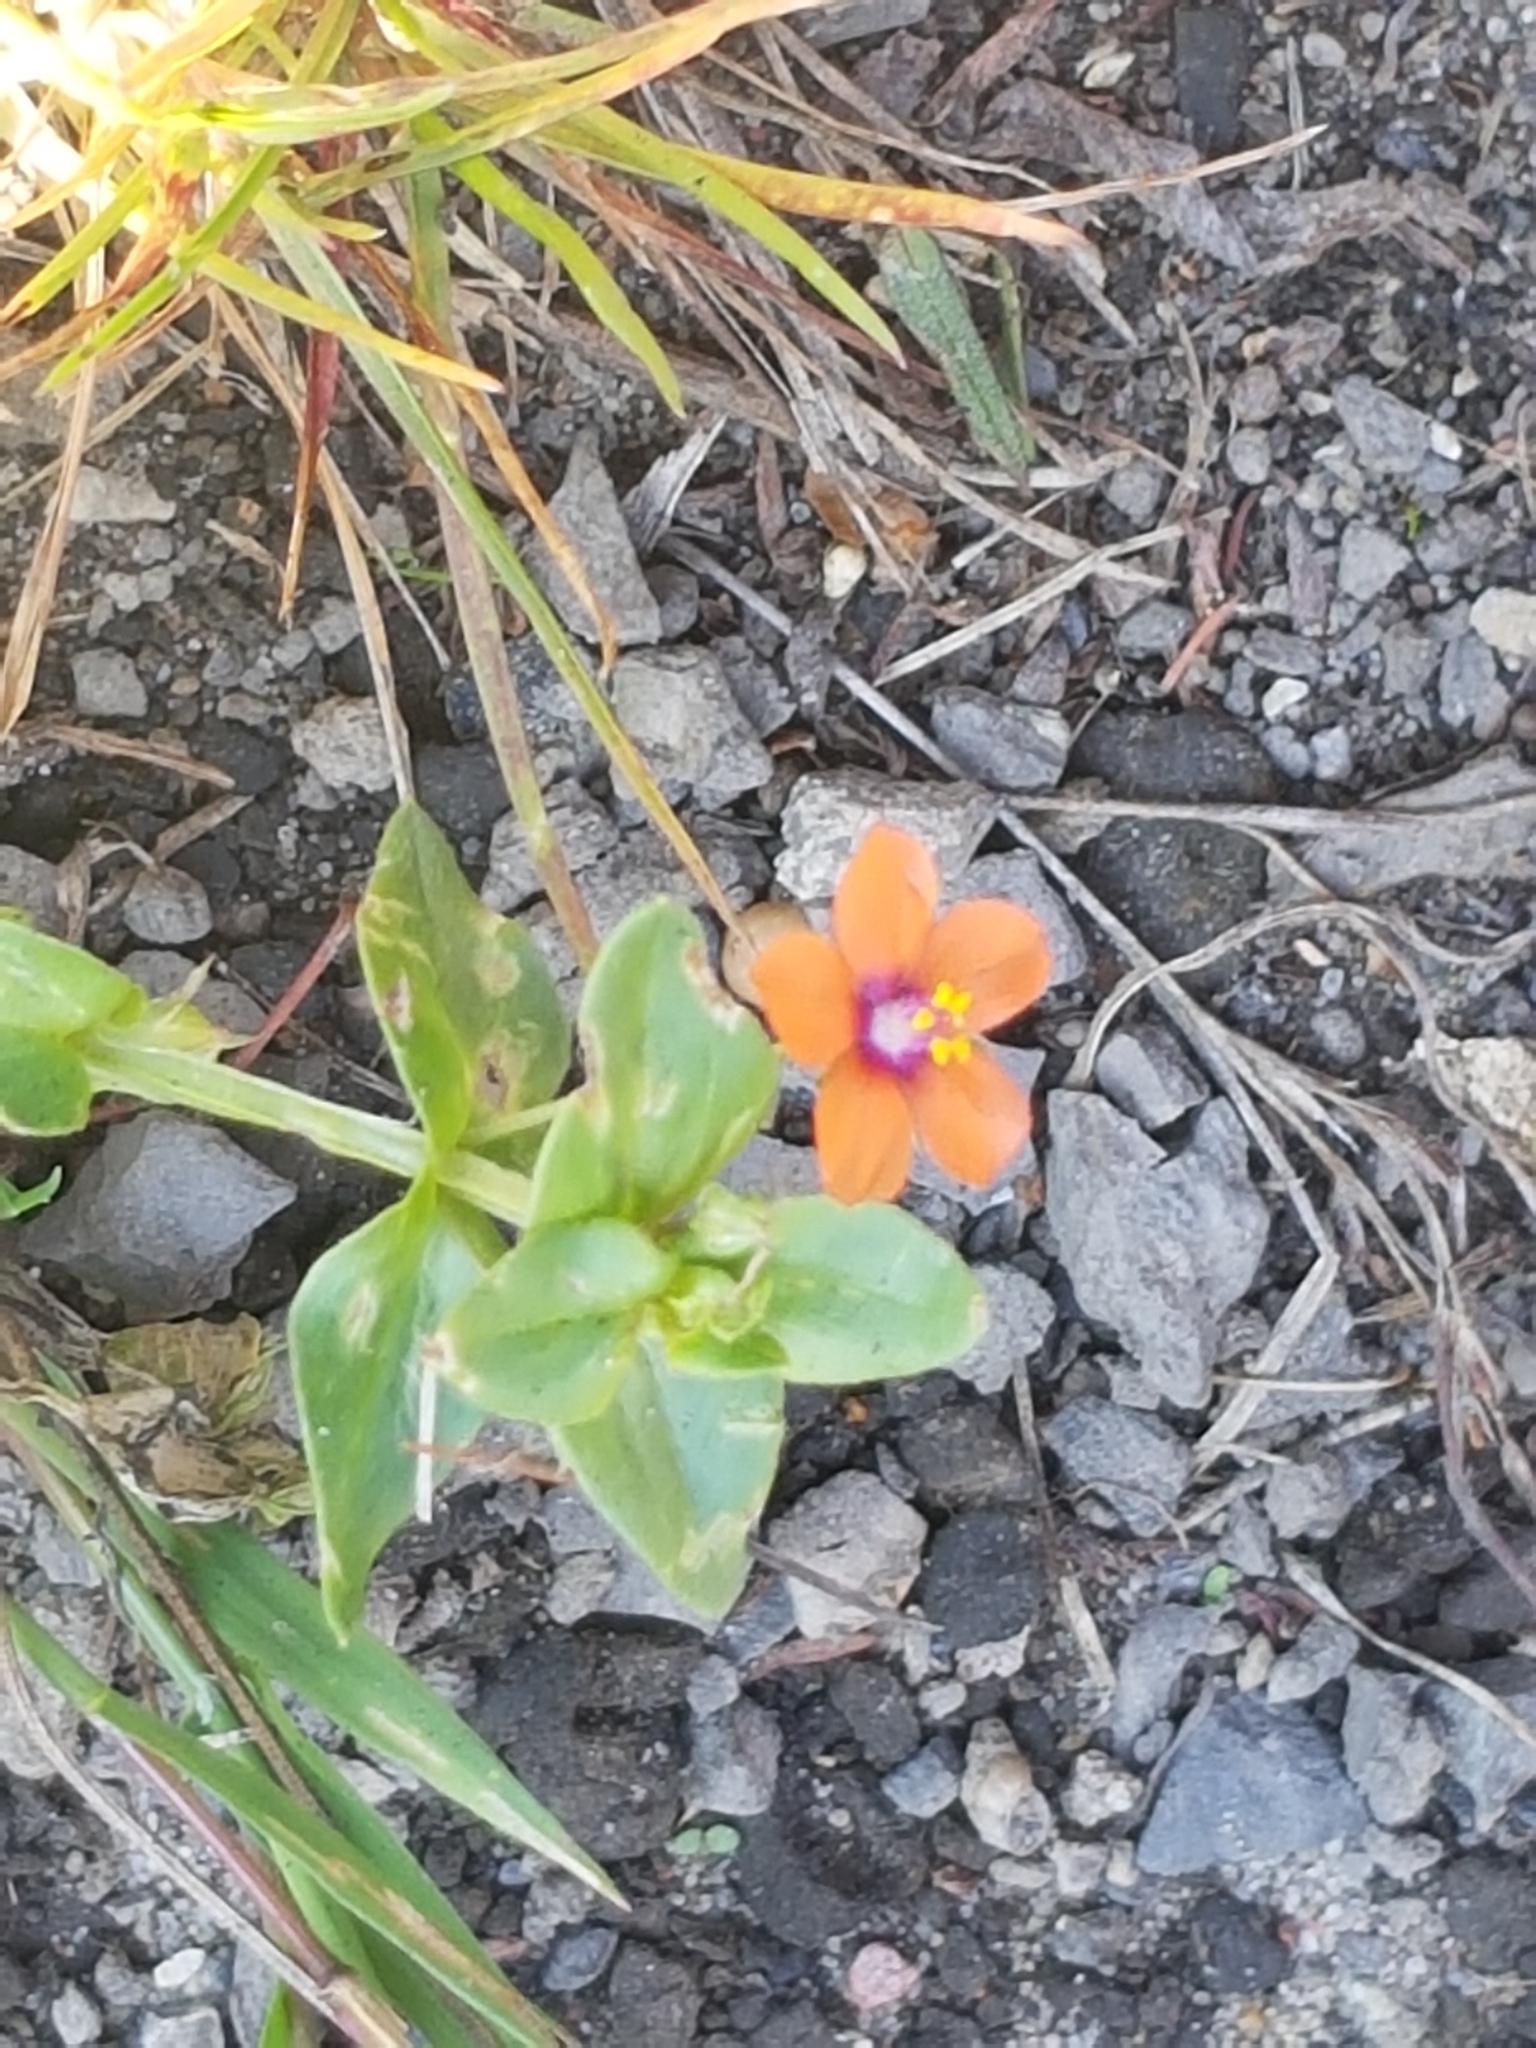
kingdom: Plantae
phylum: Tracheophyta
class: Magnoliopsida
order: Ericales
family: Primulaceae
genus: Lysimachia
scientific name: Lysimachia arvensis
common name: Scarlet pimpernel
